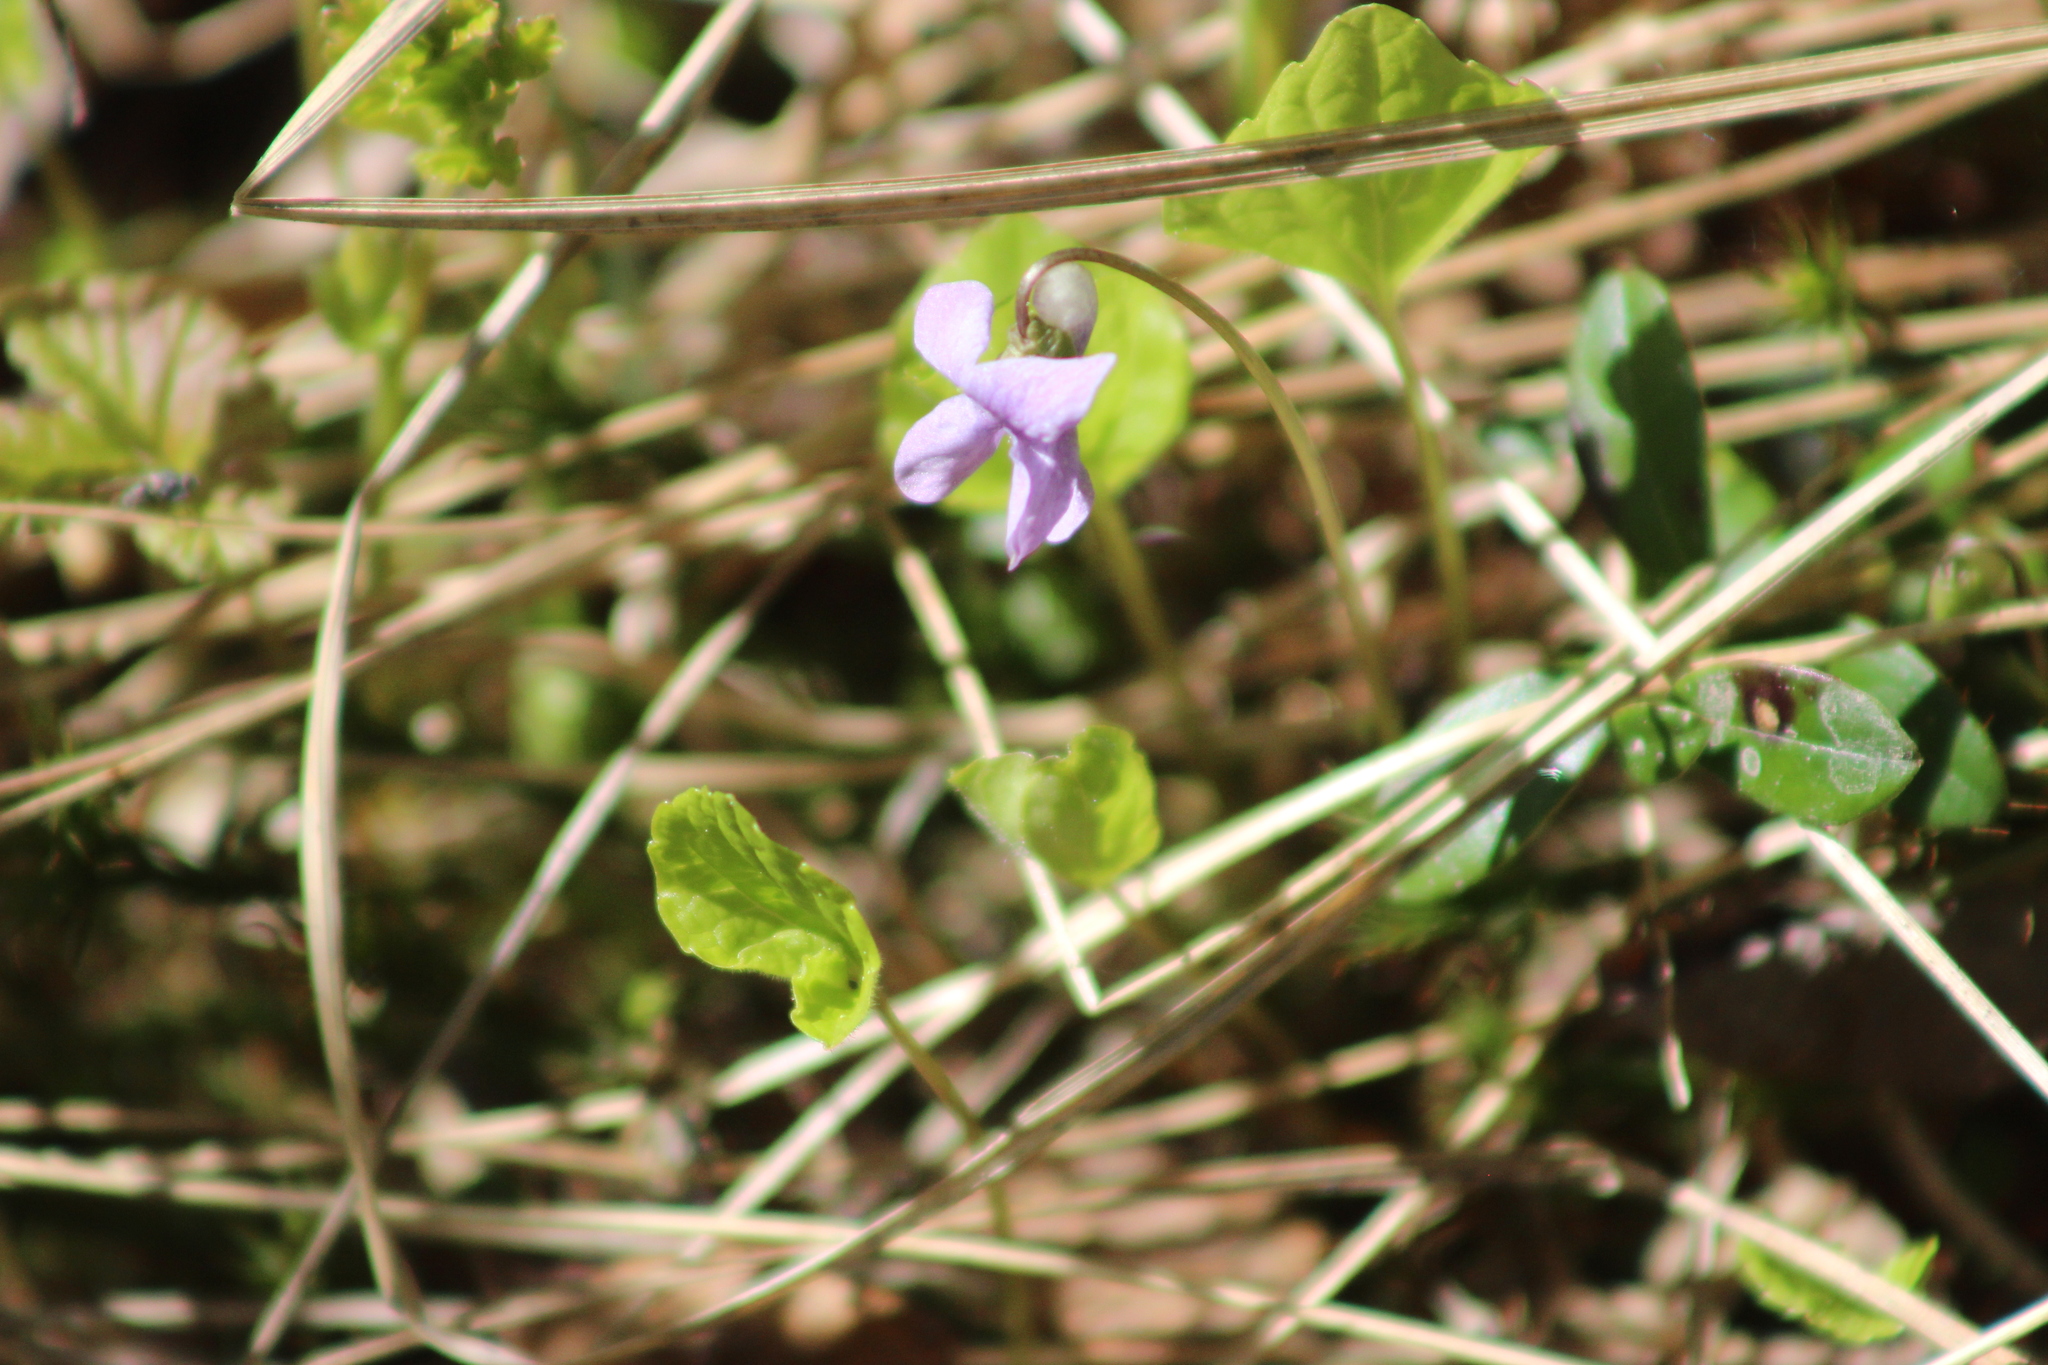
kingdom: Plantae
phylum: Tracheophyta
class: Magnoliopsida
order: Malpighiales
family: Violaceae
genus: Viola
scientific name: Viola epipsila
